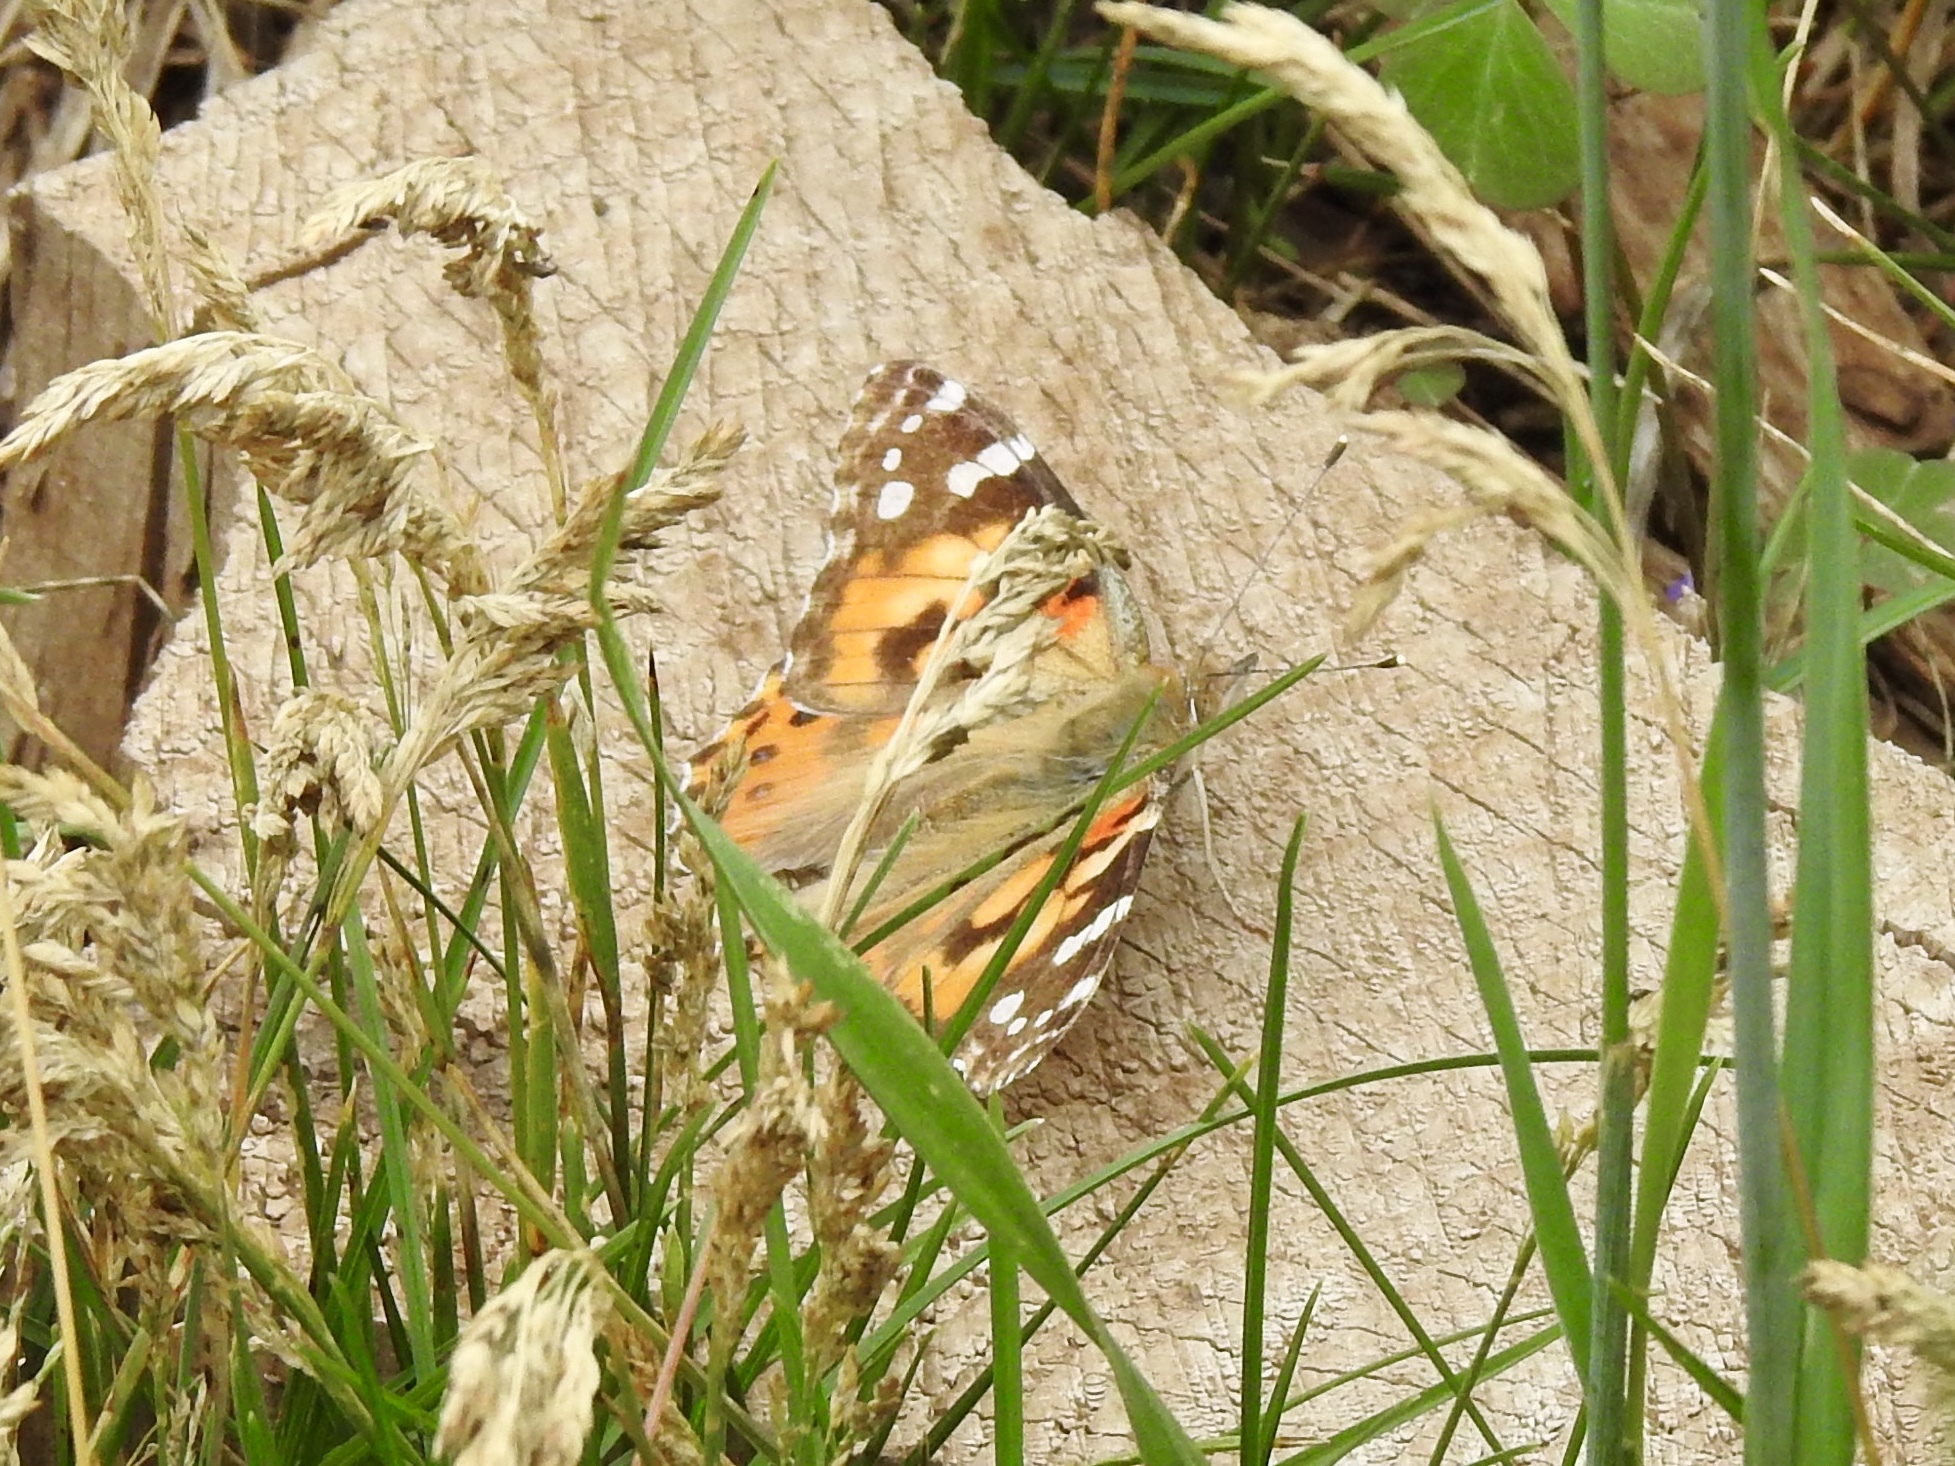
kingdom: Animalia
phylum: Arthropoda
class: Insecta
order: Lepidoptera
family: Nymphalidae
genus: Vanessa
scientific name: Vanessa cardui
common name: Painted lady
